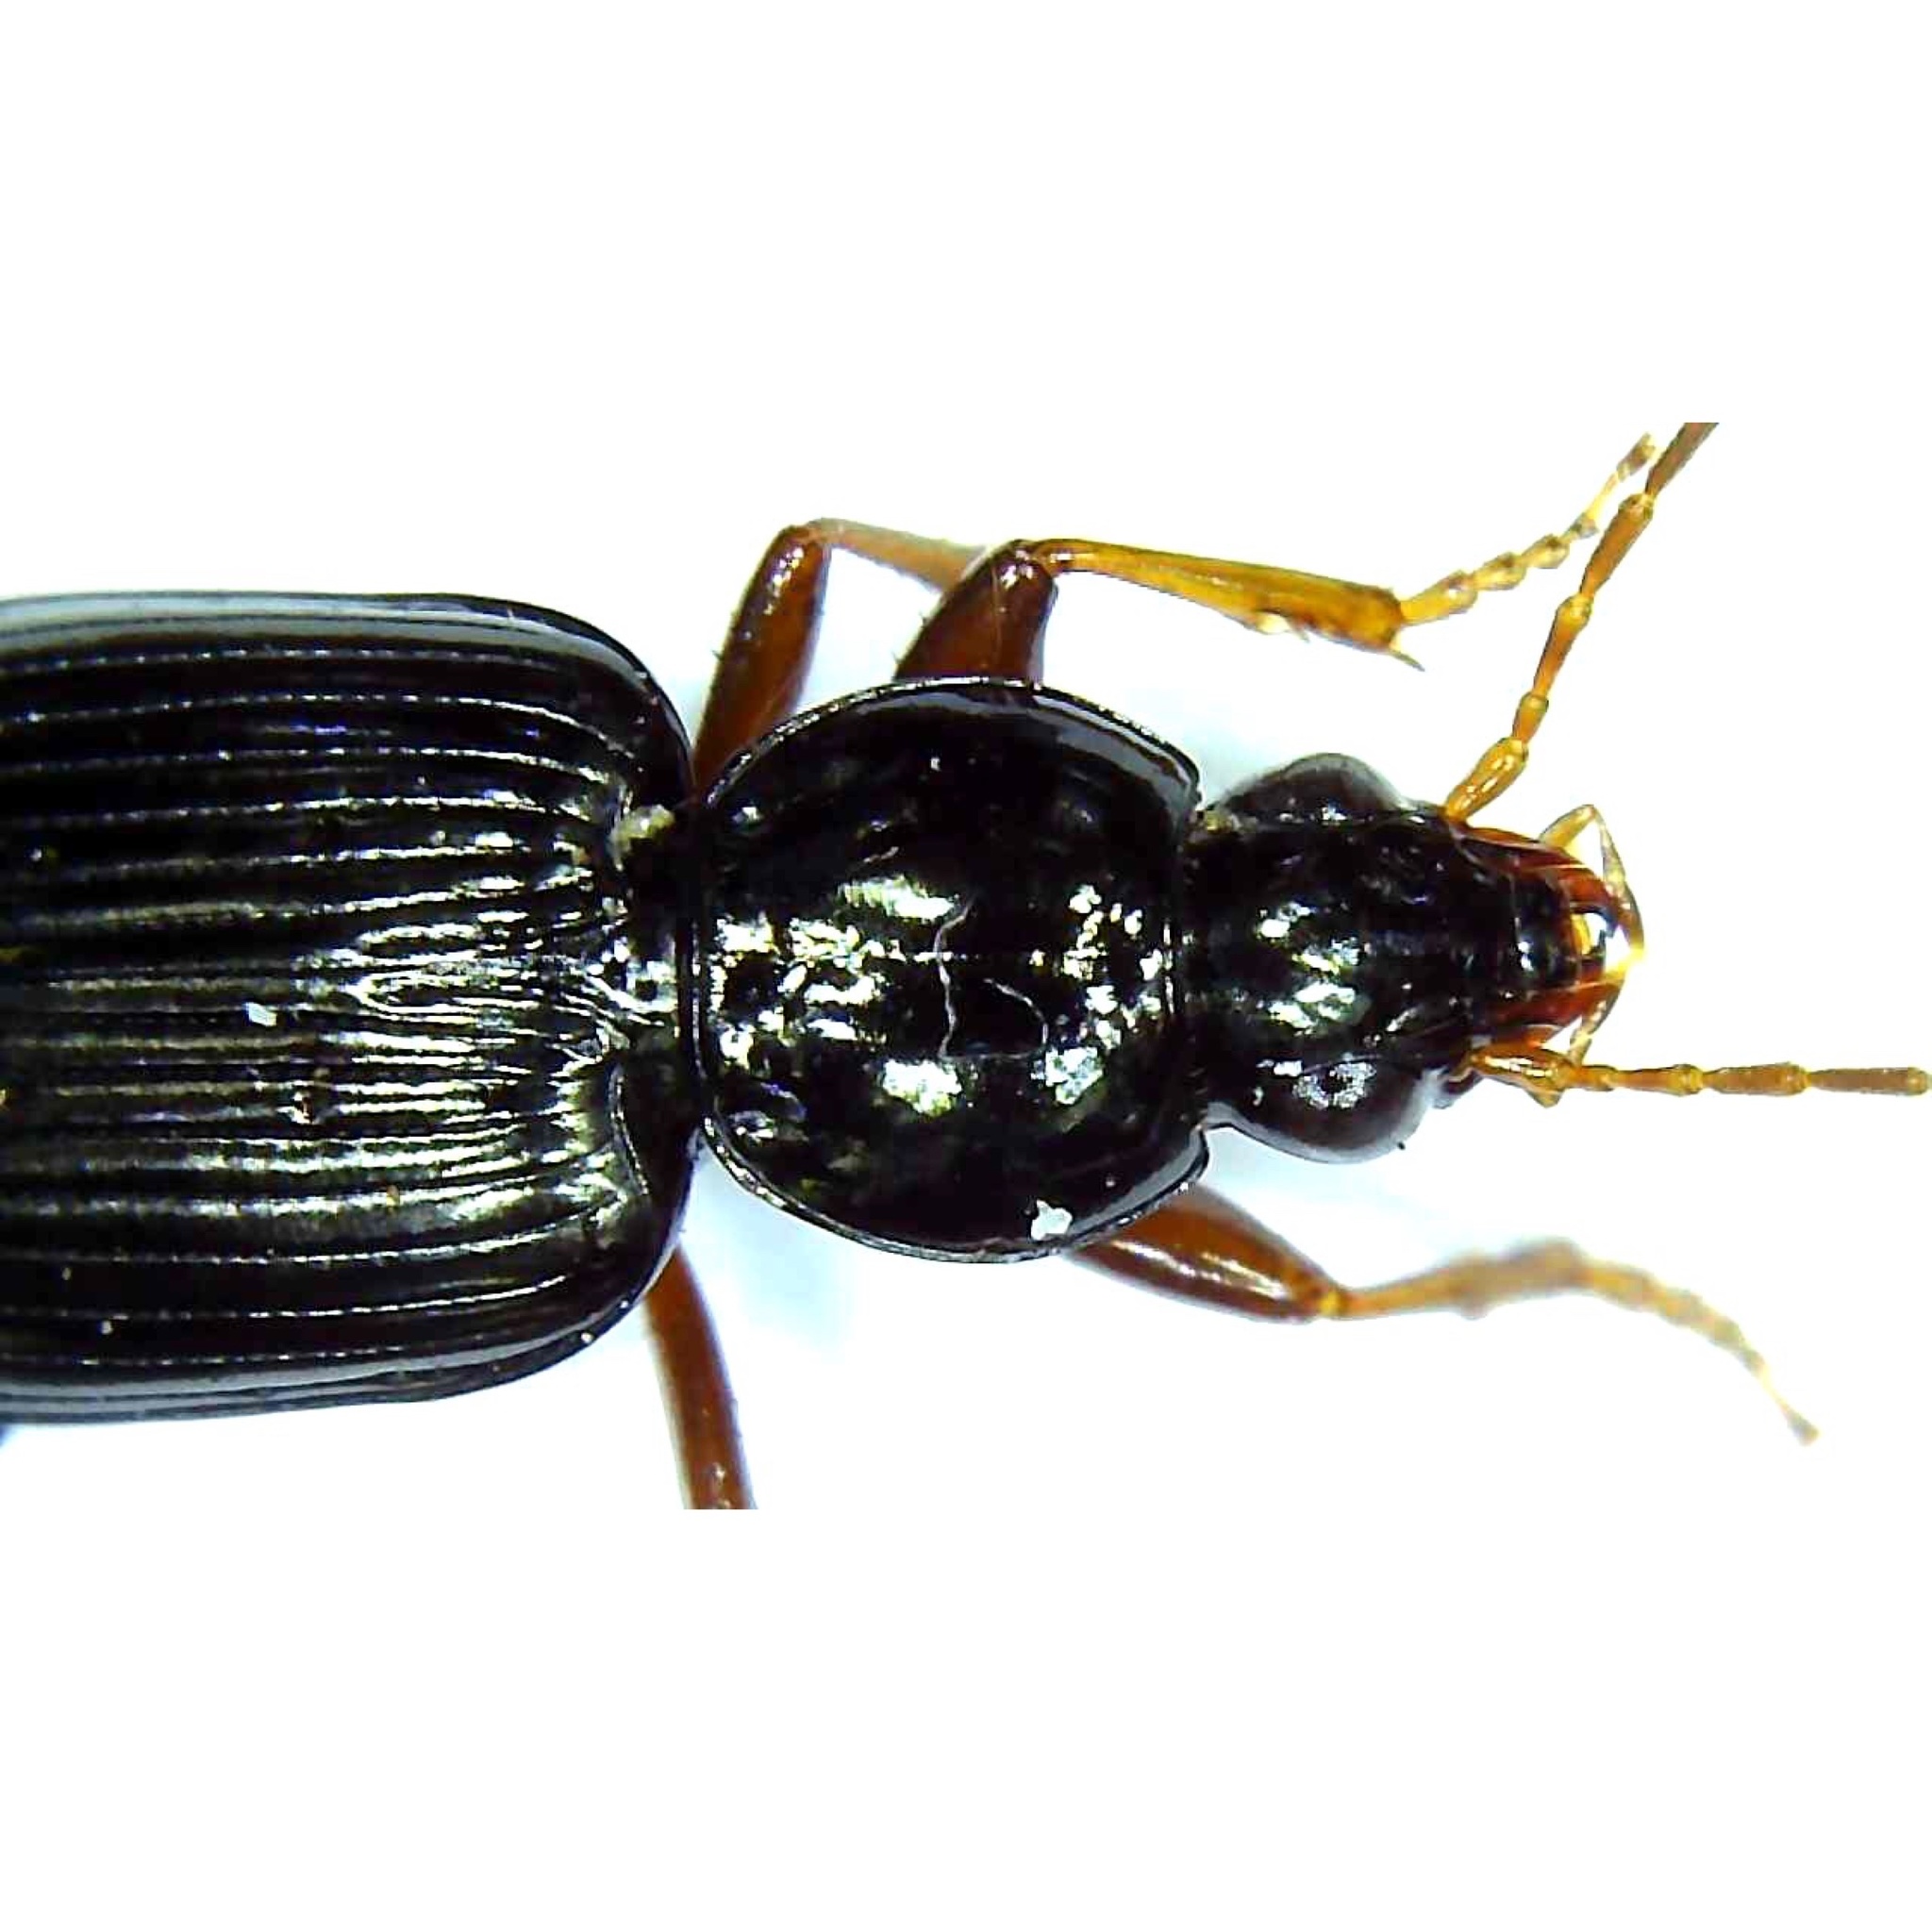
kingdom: Animalia
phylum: Arthropoda
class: Insecta
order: Coleoptera
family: Carabidae
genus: Agonum
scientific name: Agonum punctiforme
